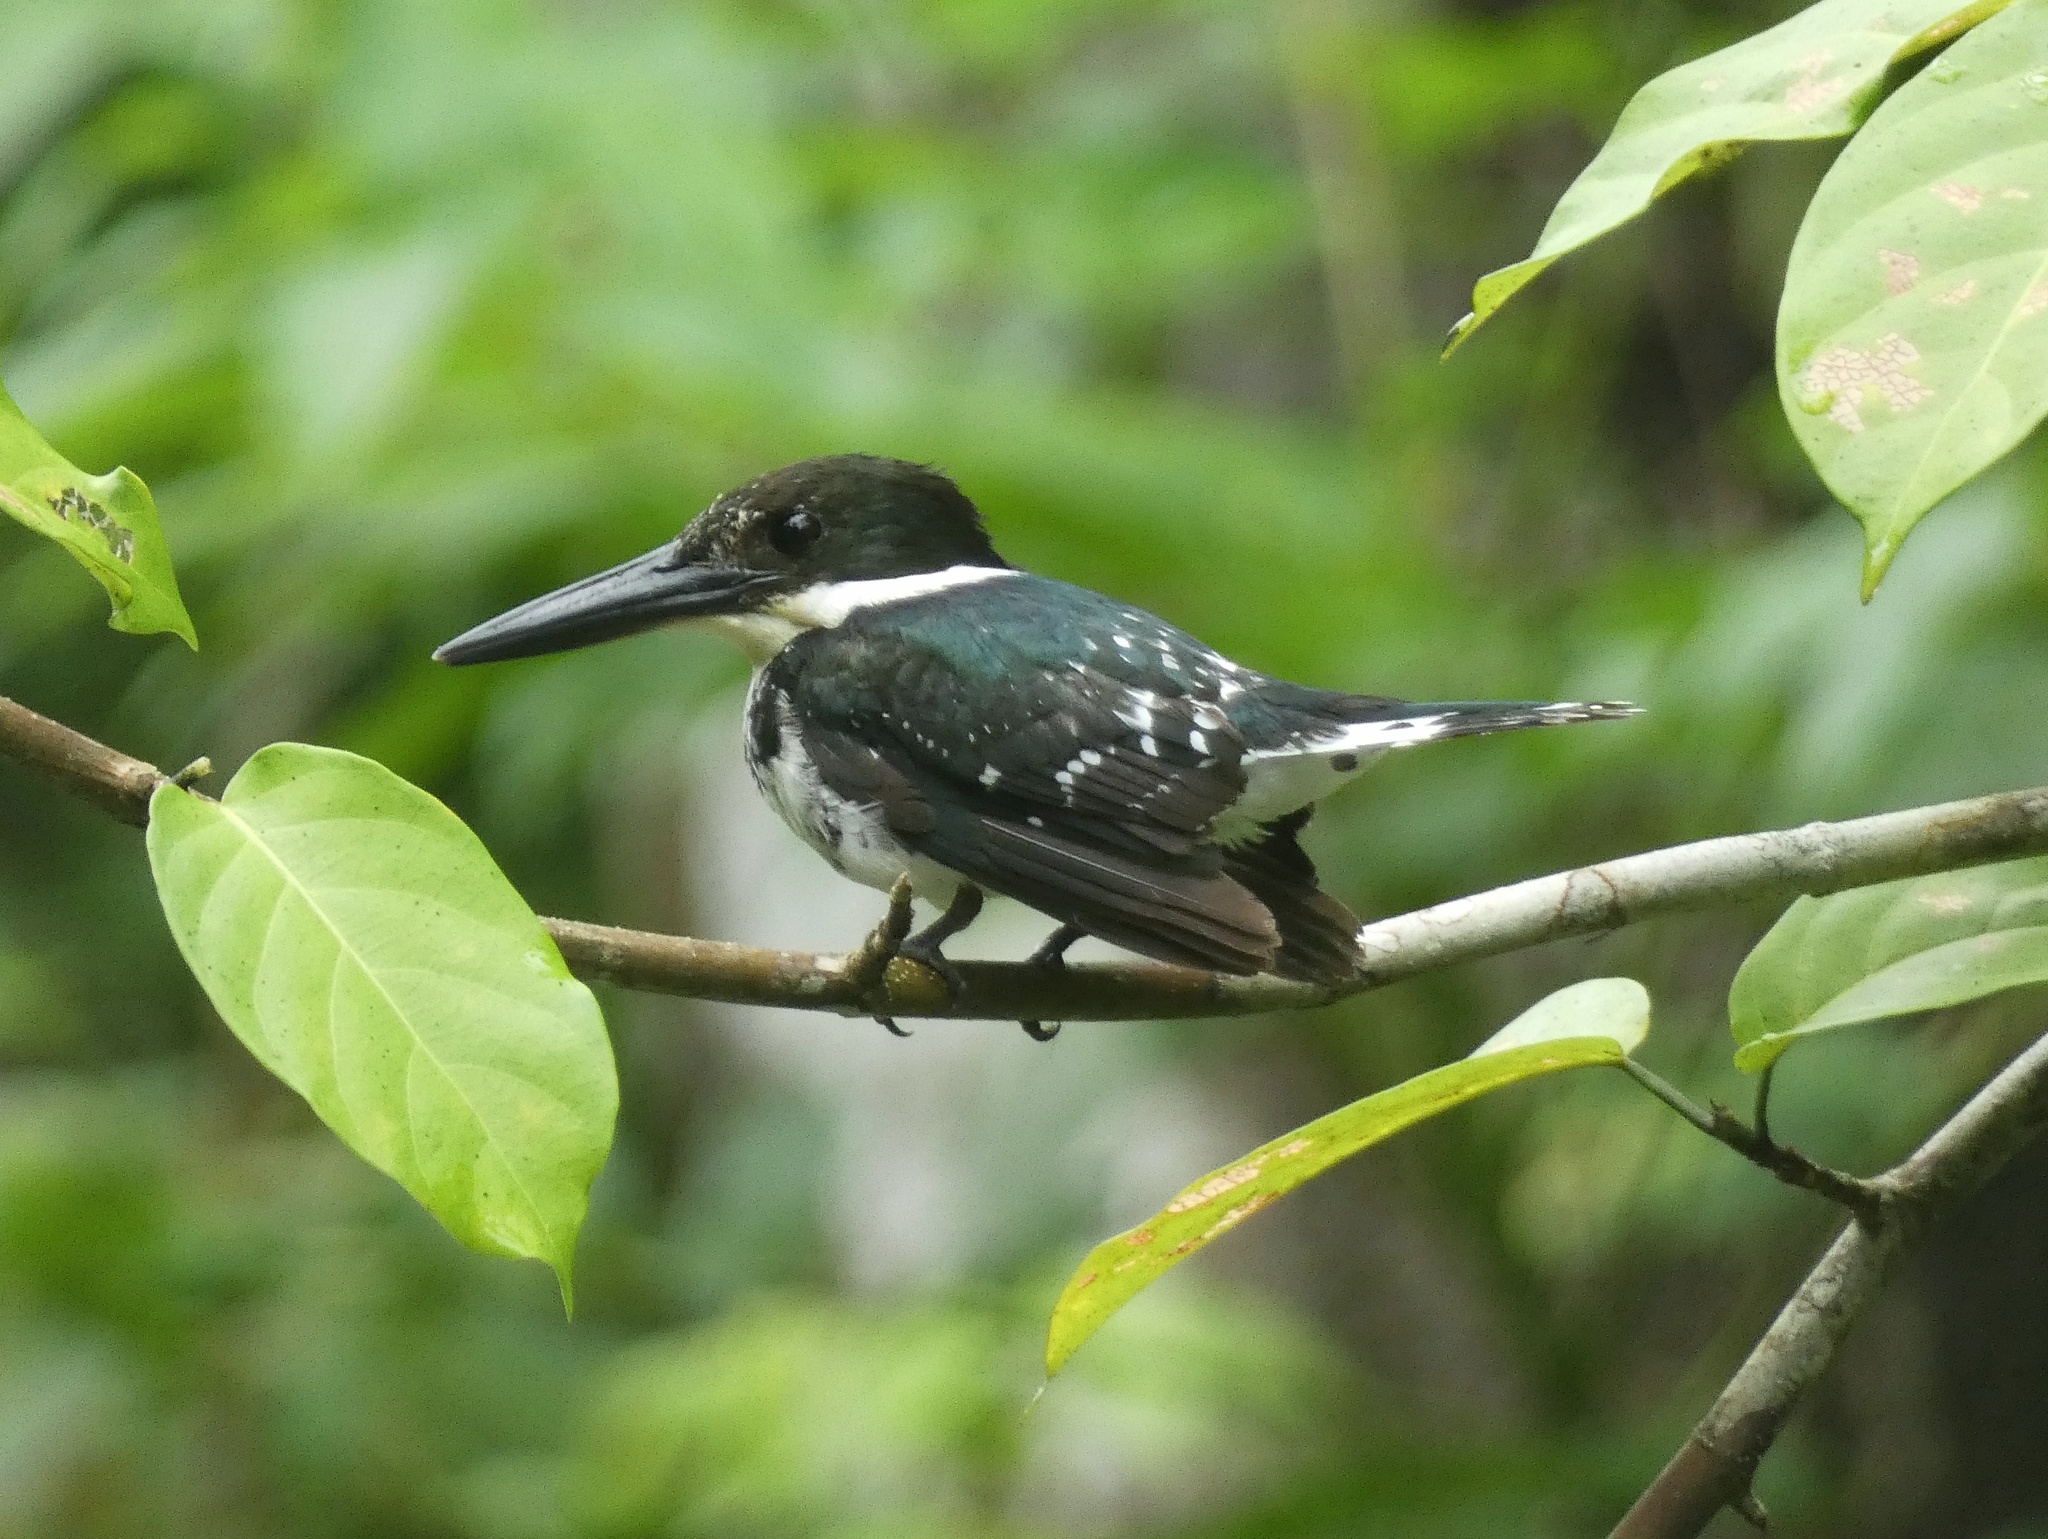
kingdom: Animalia
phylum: Chordata
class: Aves
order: Coraciiformes
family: Alcedinidae
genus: Chloroceryle
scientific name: Chloroceryle americana
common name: Green kingfisher
